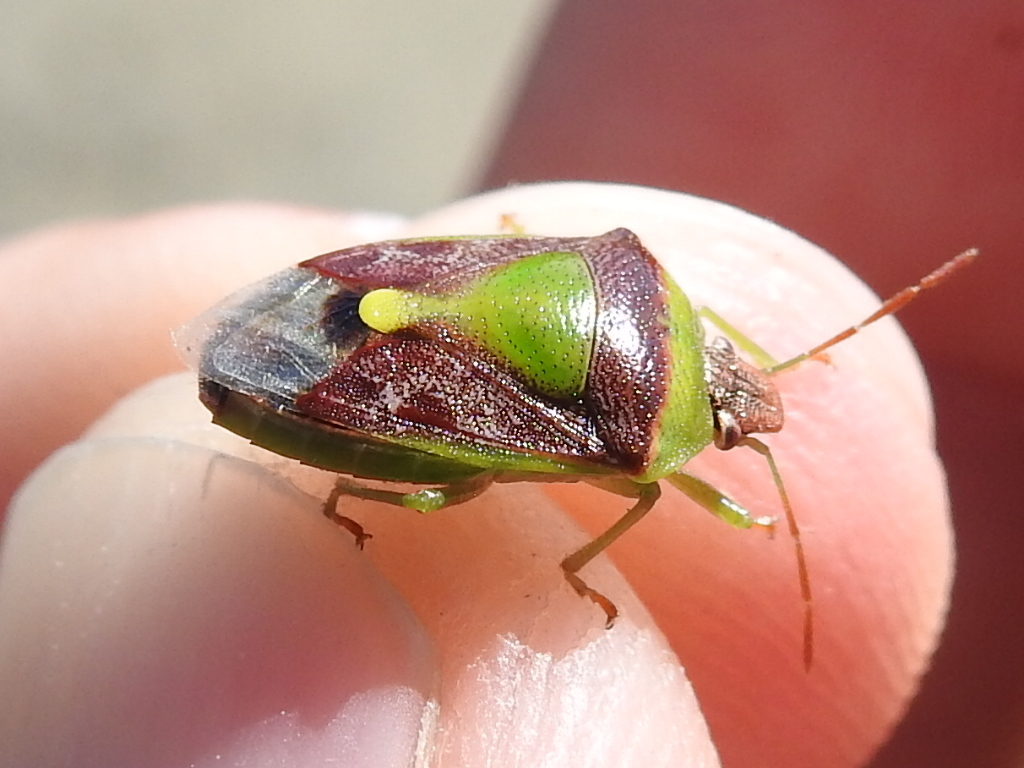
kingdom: Animalia
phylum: Arthropoda
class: Insecta
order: Hemiptera
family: Pentatomidae
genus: Banasa
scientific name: Banasa dimidiata
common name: Green burgundy stink bug
